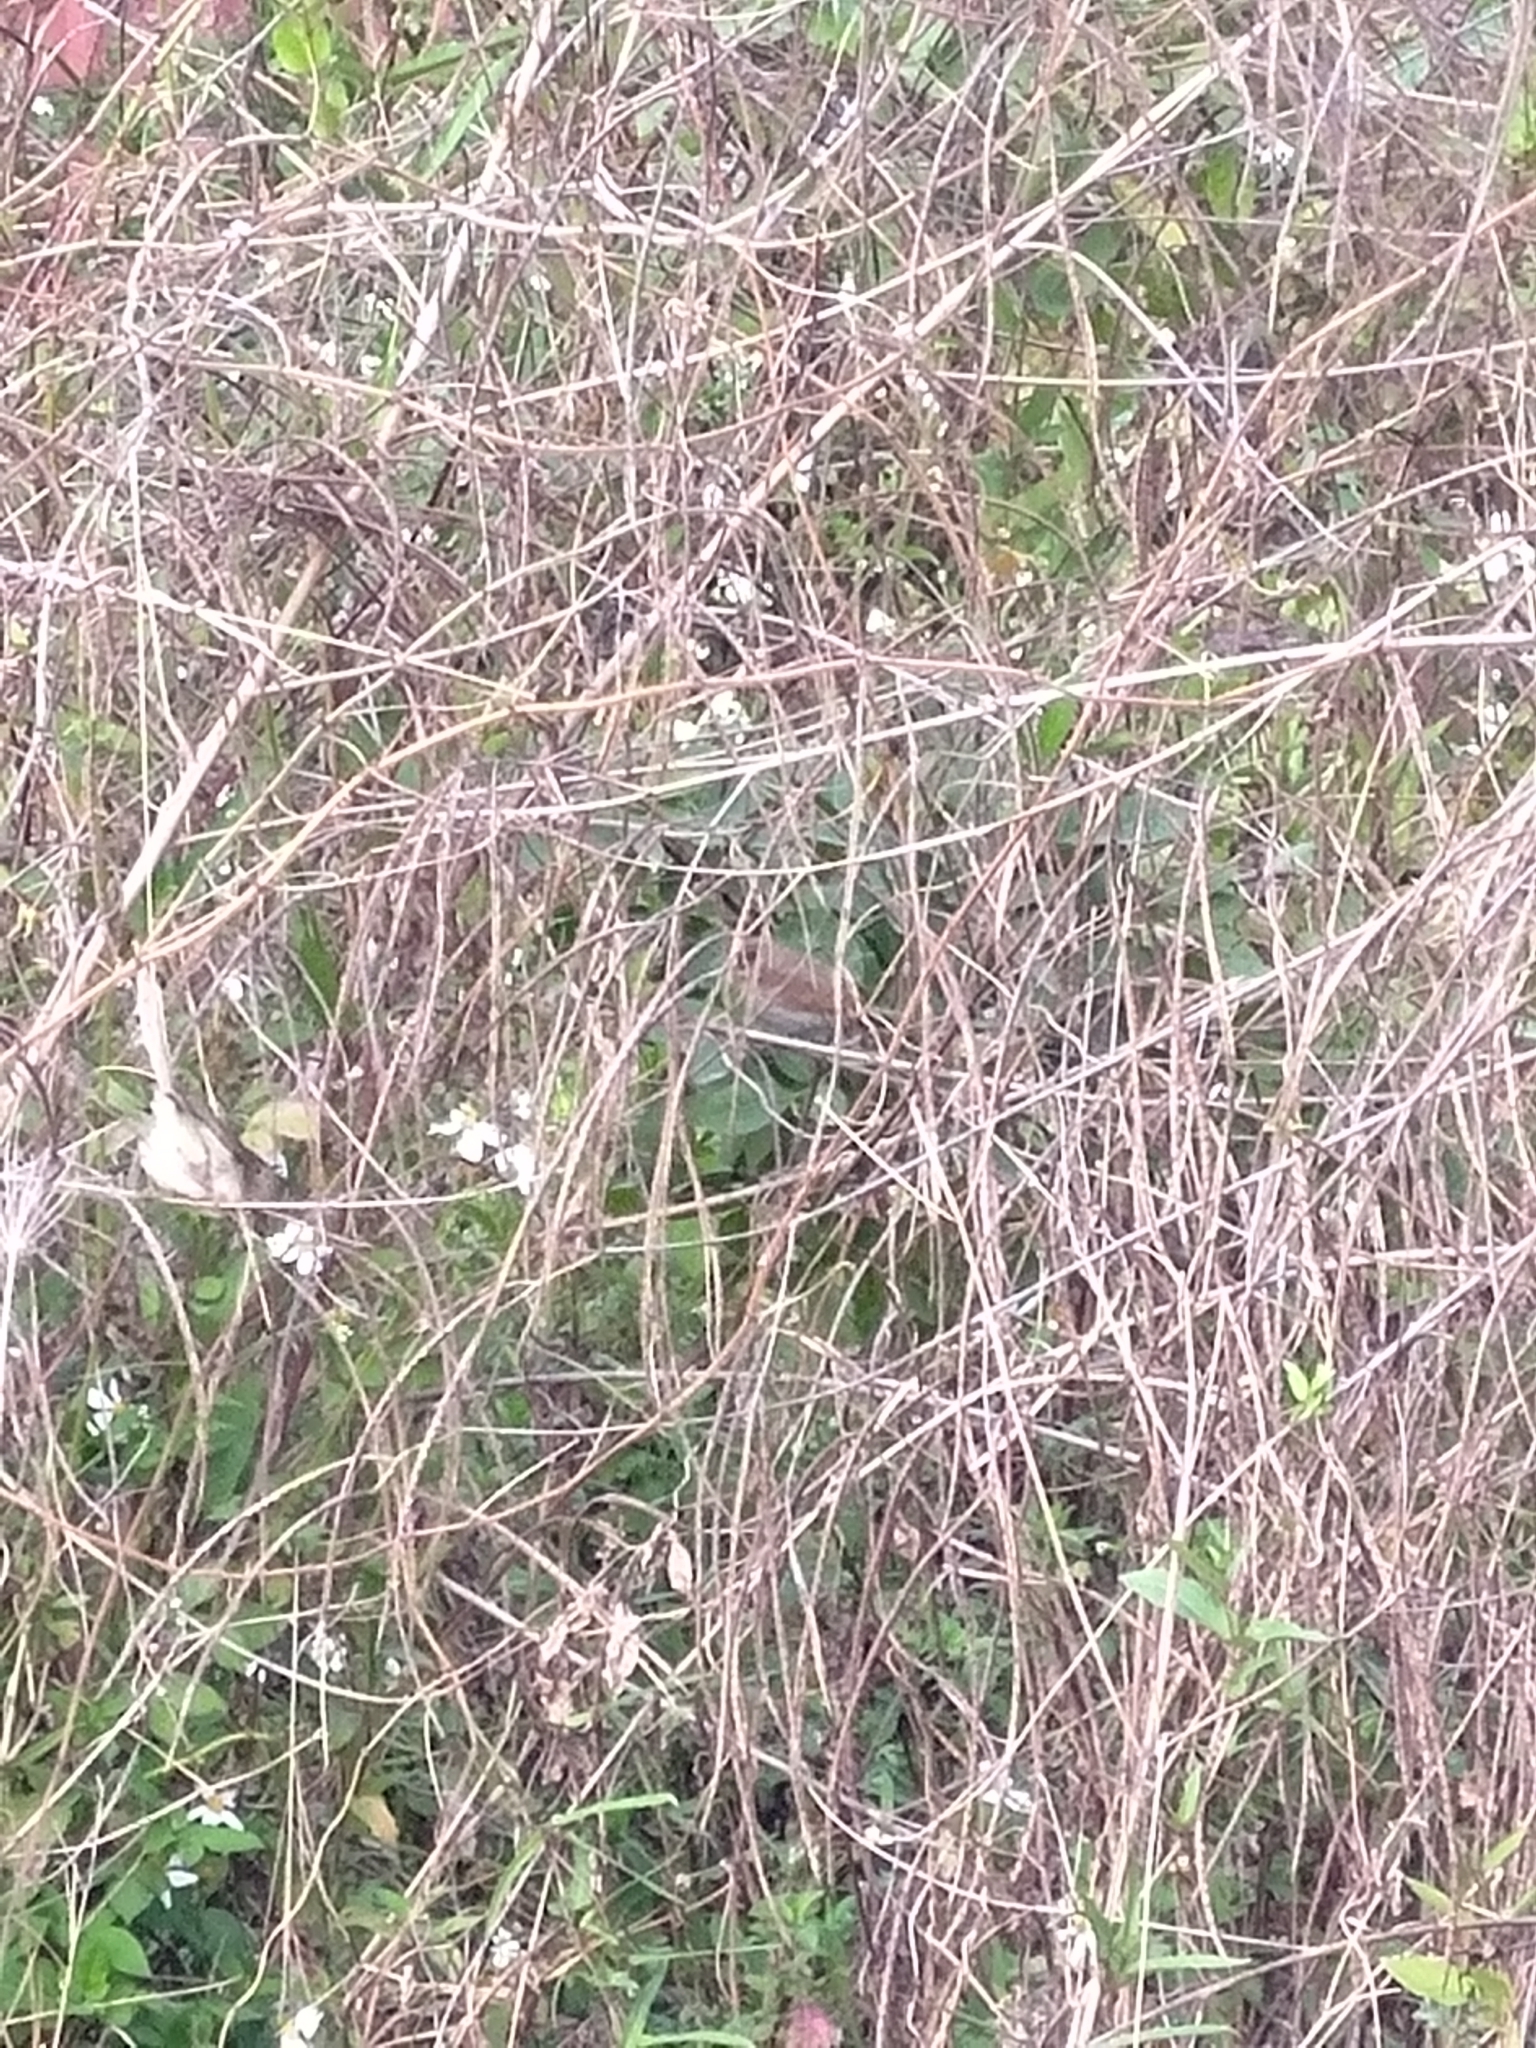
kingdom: Animalia
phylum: Chordata
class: Aves
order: Passeriformes
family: Estrildidae
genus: Lonchura
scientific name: Lonchura punctulata
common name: Scaly-breasted munia
